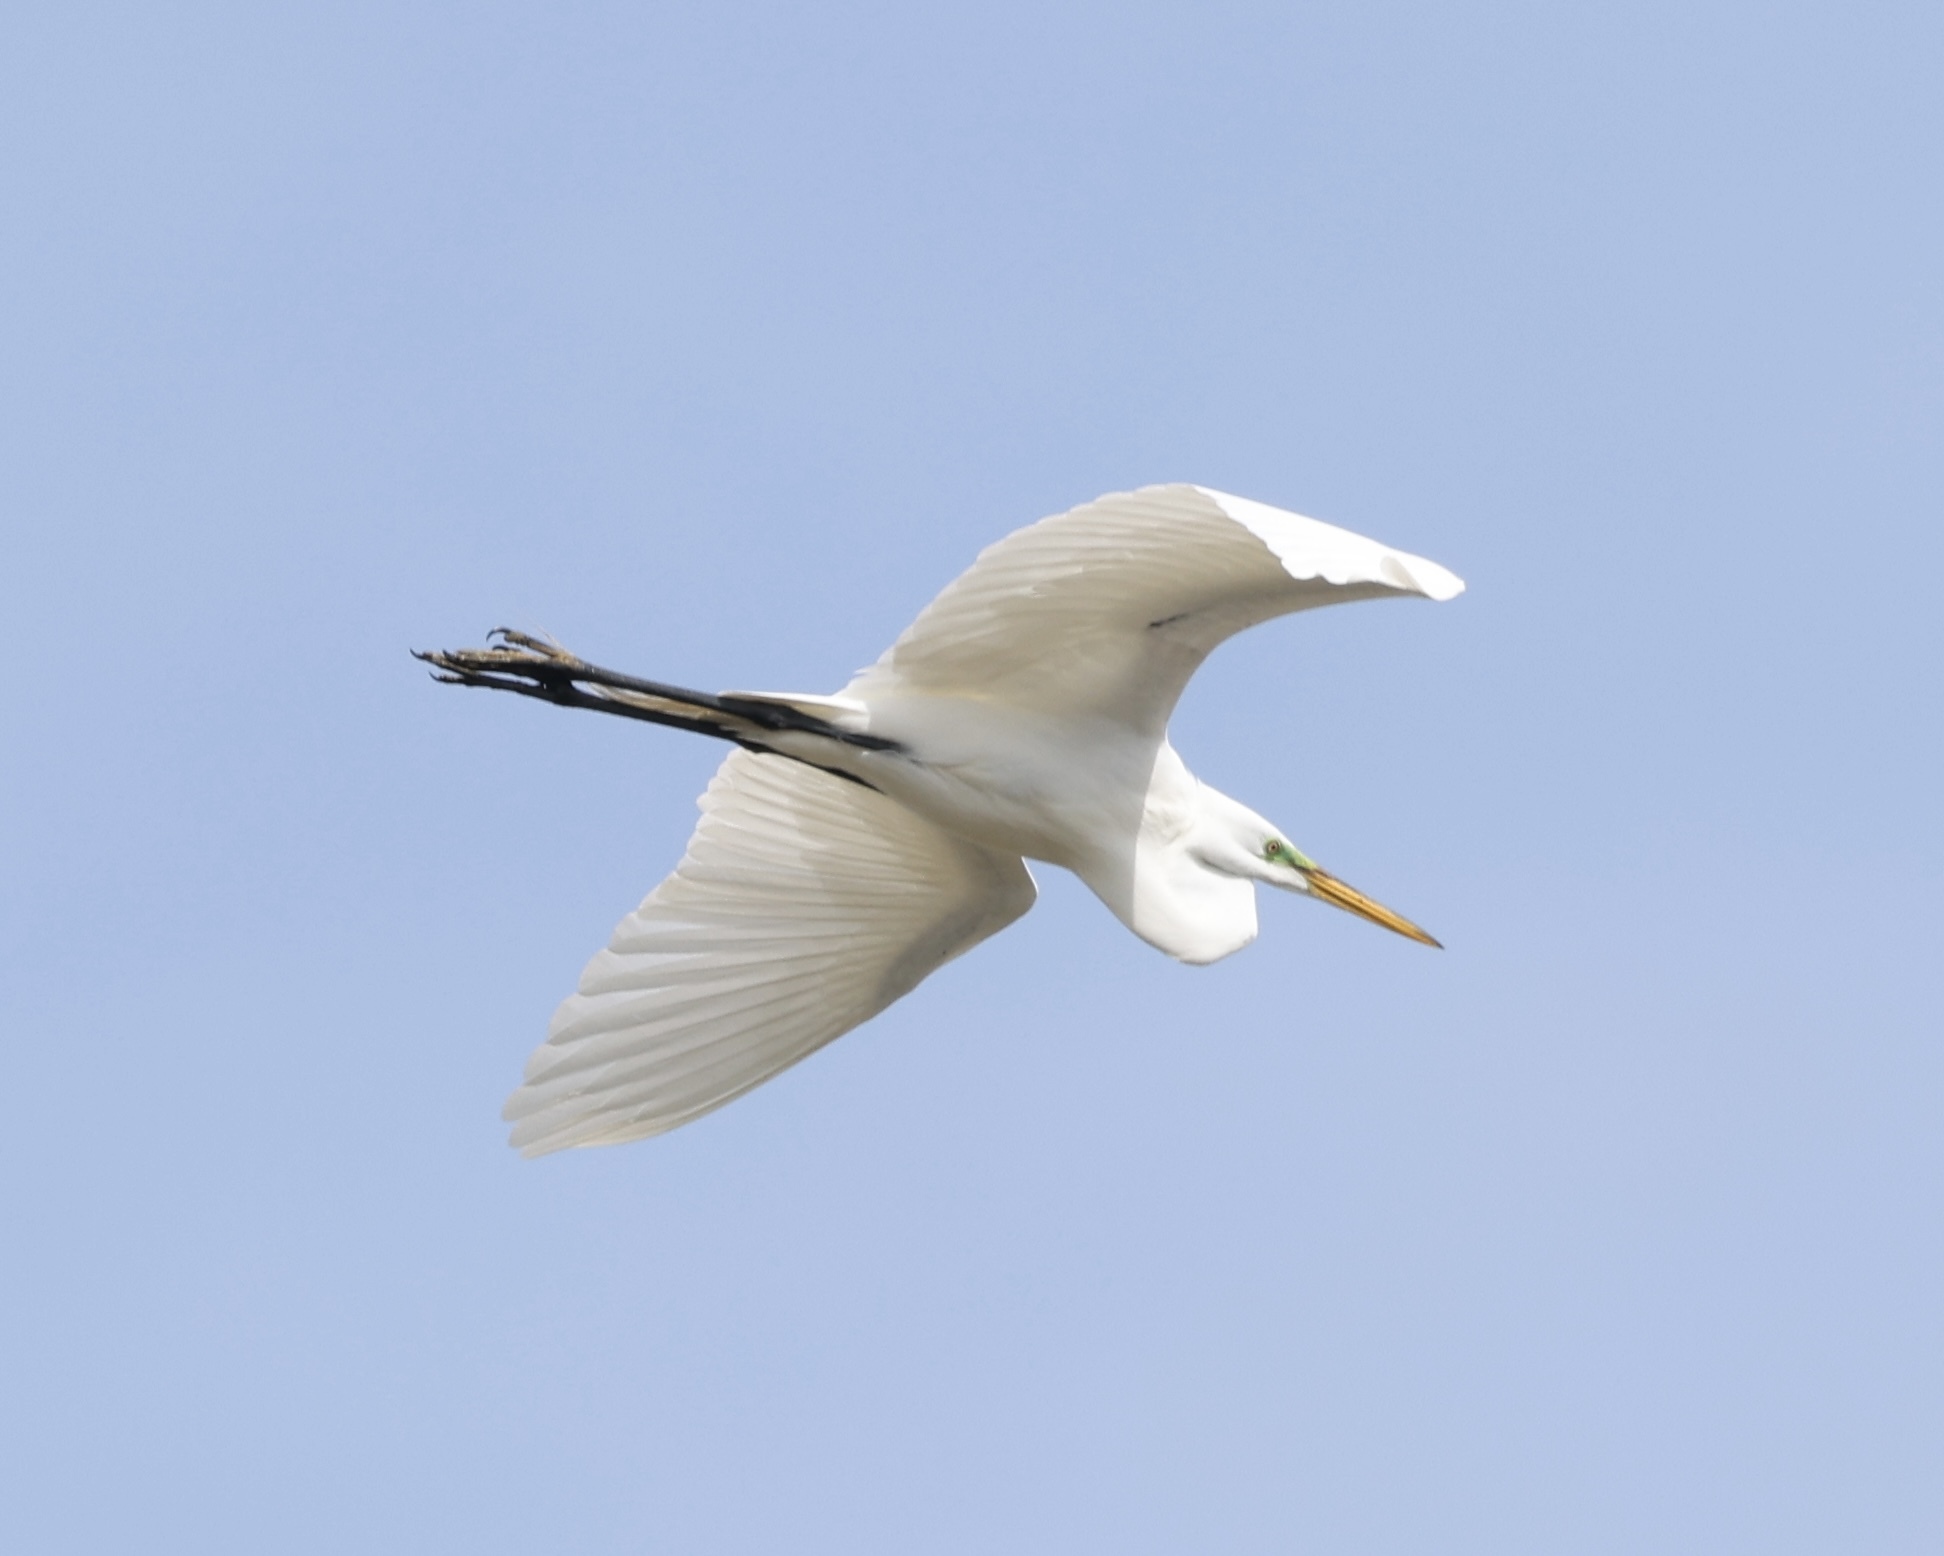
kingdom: Animalia
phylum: Chordata
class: Aves
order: Pelecaniformes
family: Ardeidae
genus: Ardea
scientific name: Ardea alba
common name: Great egret
